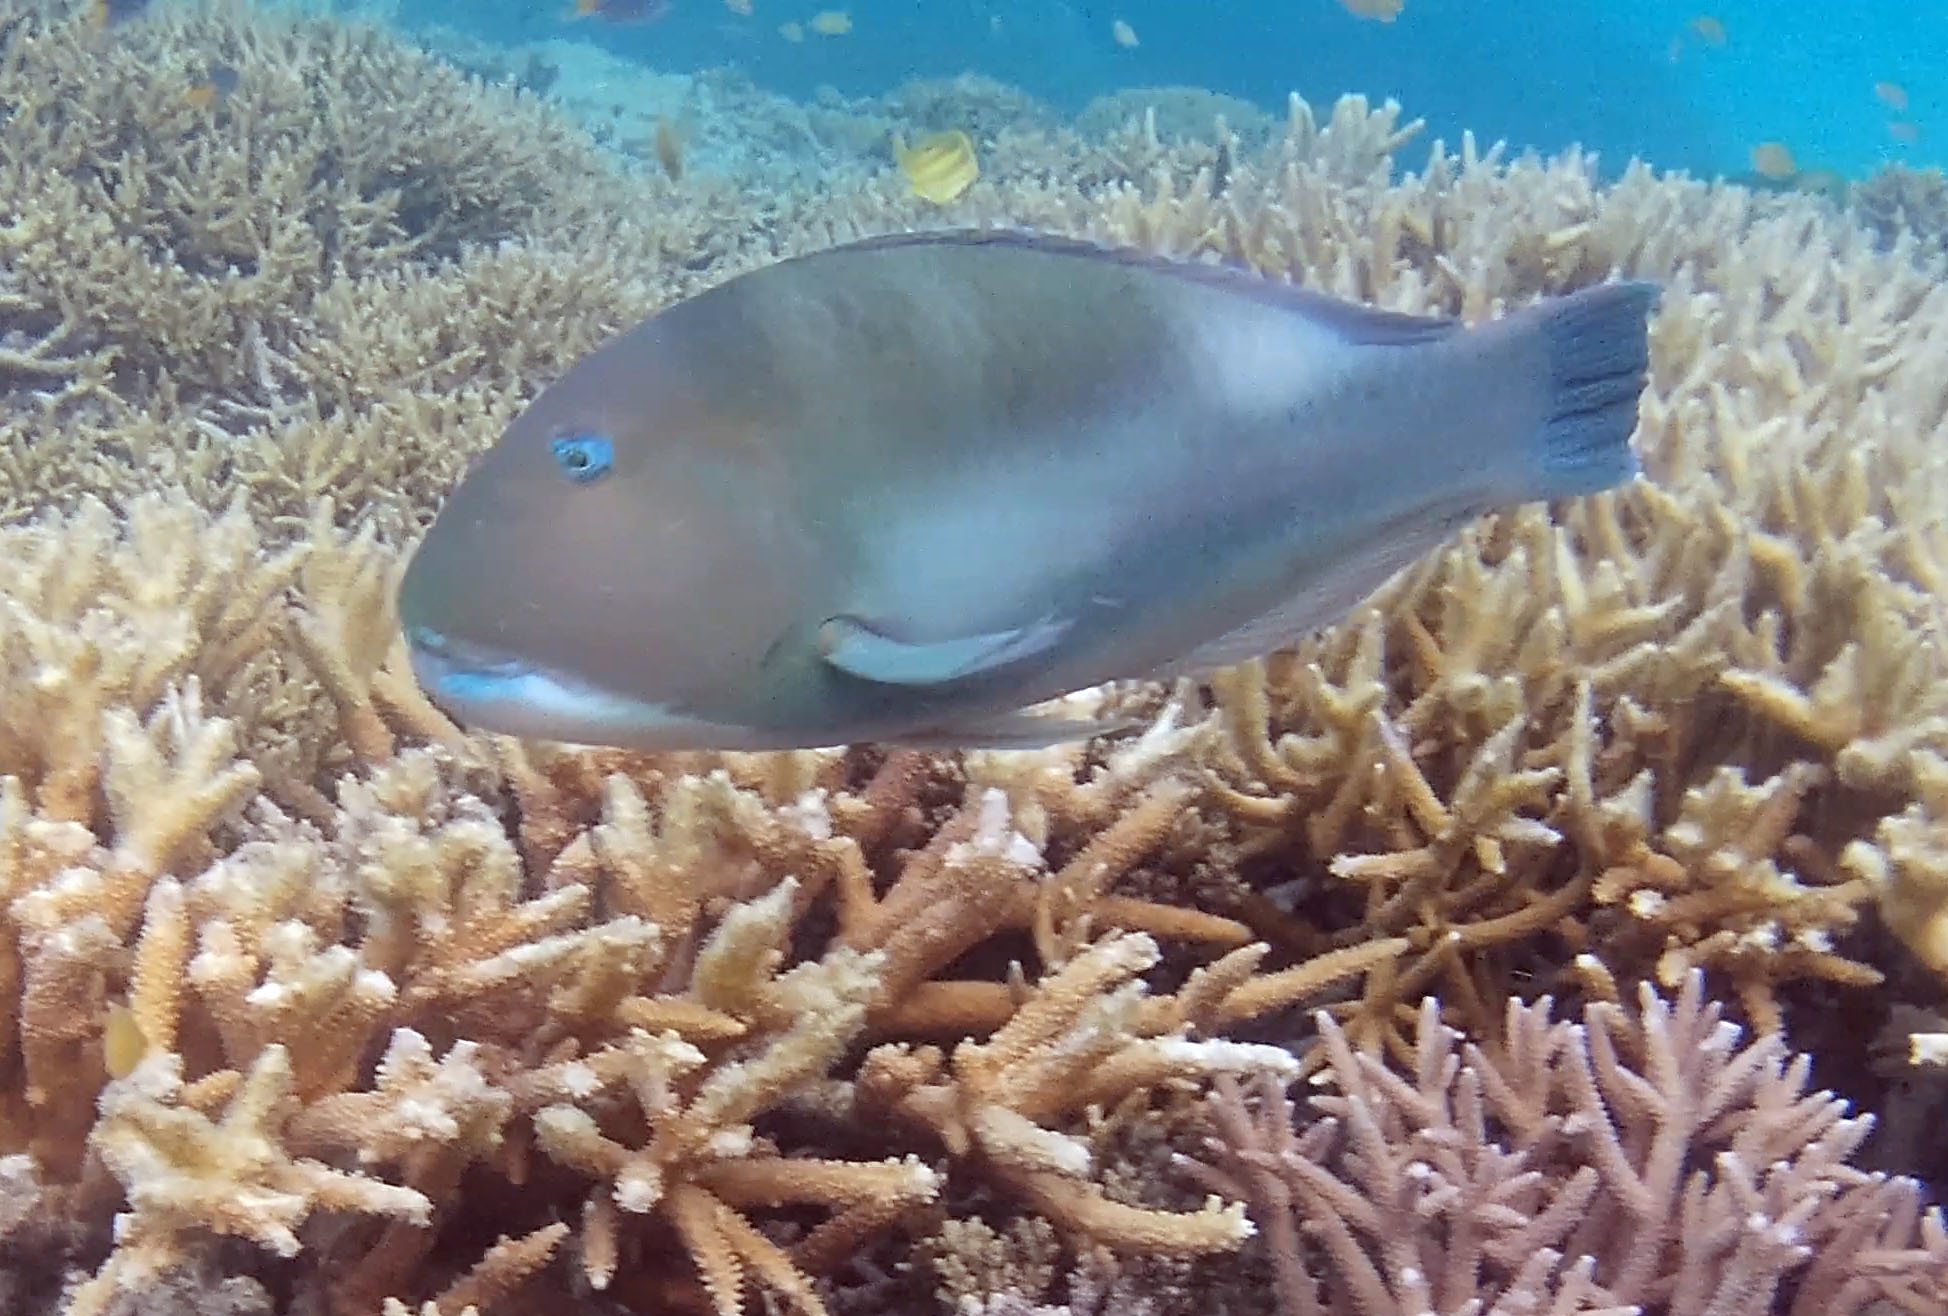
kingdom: Animalia
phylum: Chordata
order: Perciformes
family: Labridae
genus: Choerodon
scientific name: Choerodon cyanodus
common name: Blue tuskfish
